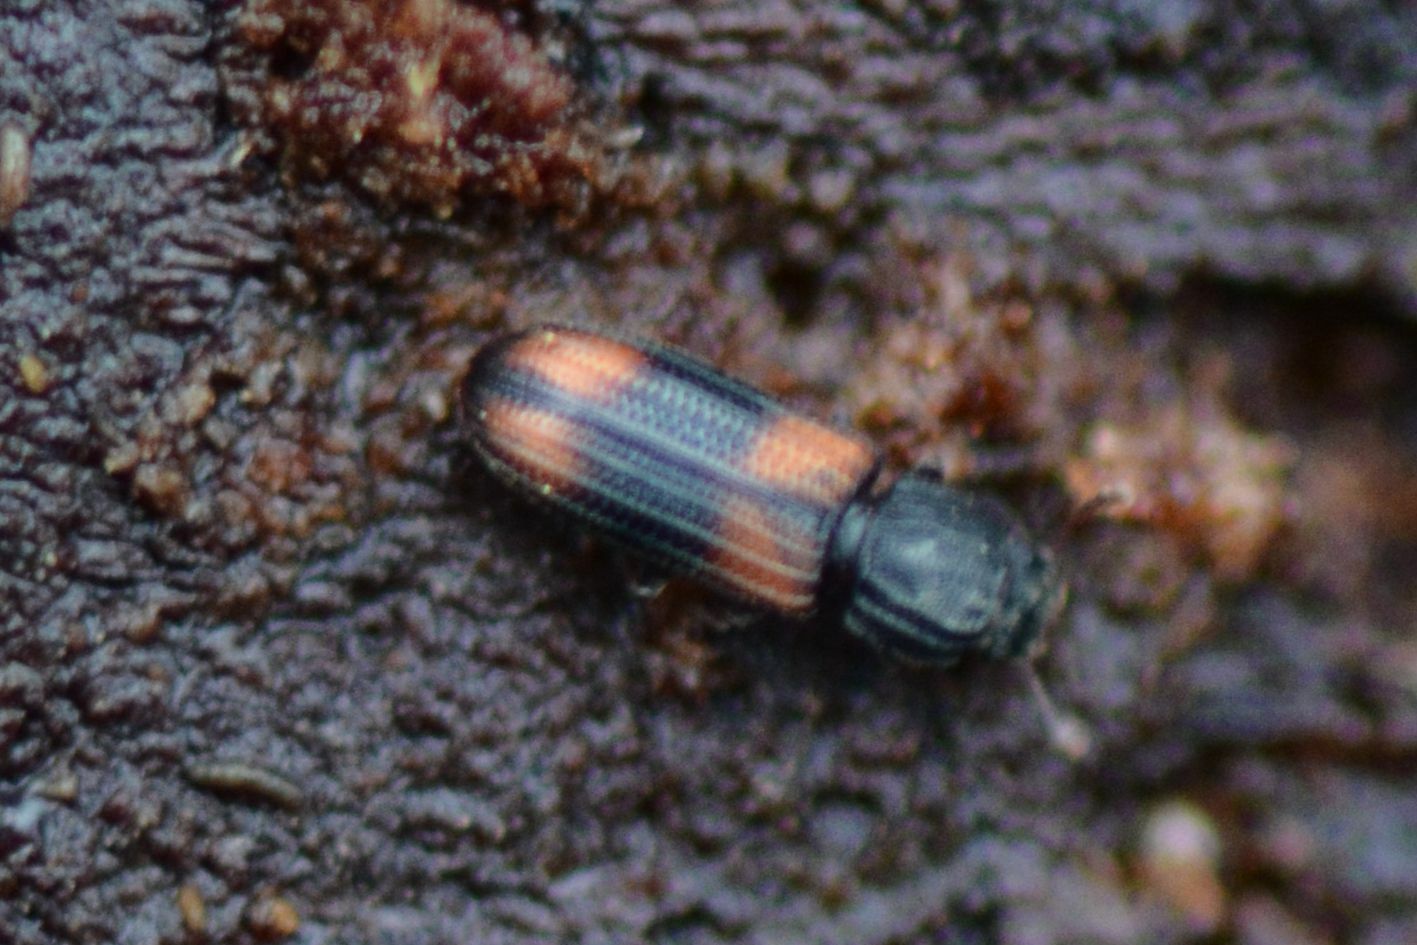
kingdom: Animalia
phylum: Arthropoda
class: Insecta
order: Coleoptera
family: Zopheridae
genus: Bitoma
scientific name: Bitoma crenata
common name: Bark beetle
